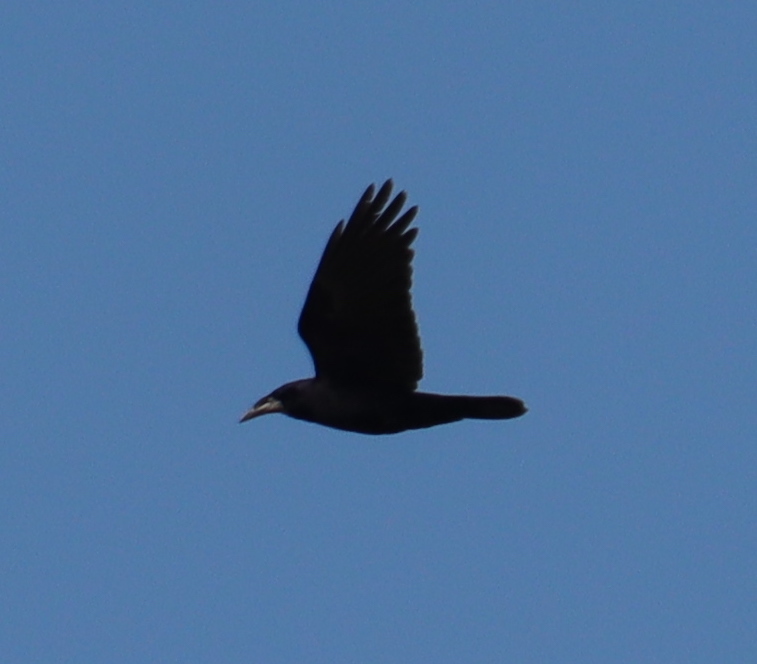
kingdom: Animalia
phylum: Chordata
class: Aves
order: Passeriformes
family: Corvidae
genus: Corvus
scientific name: Corvus corone
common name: Carrion crow
